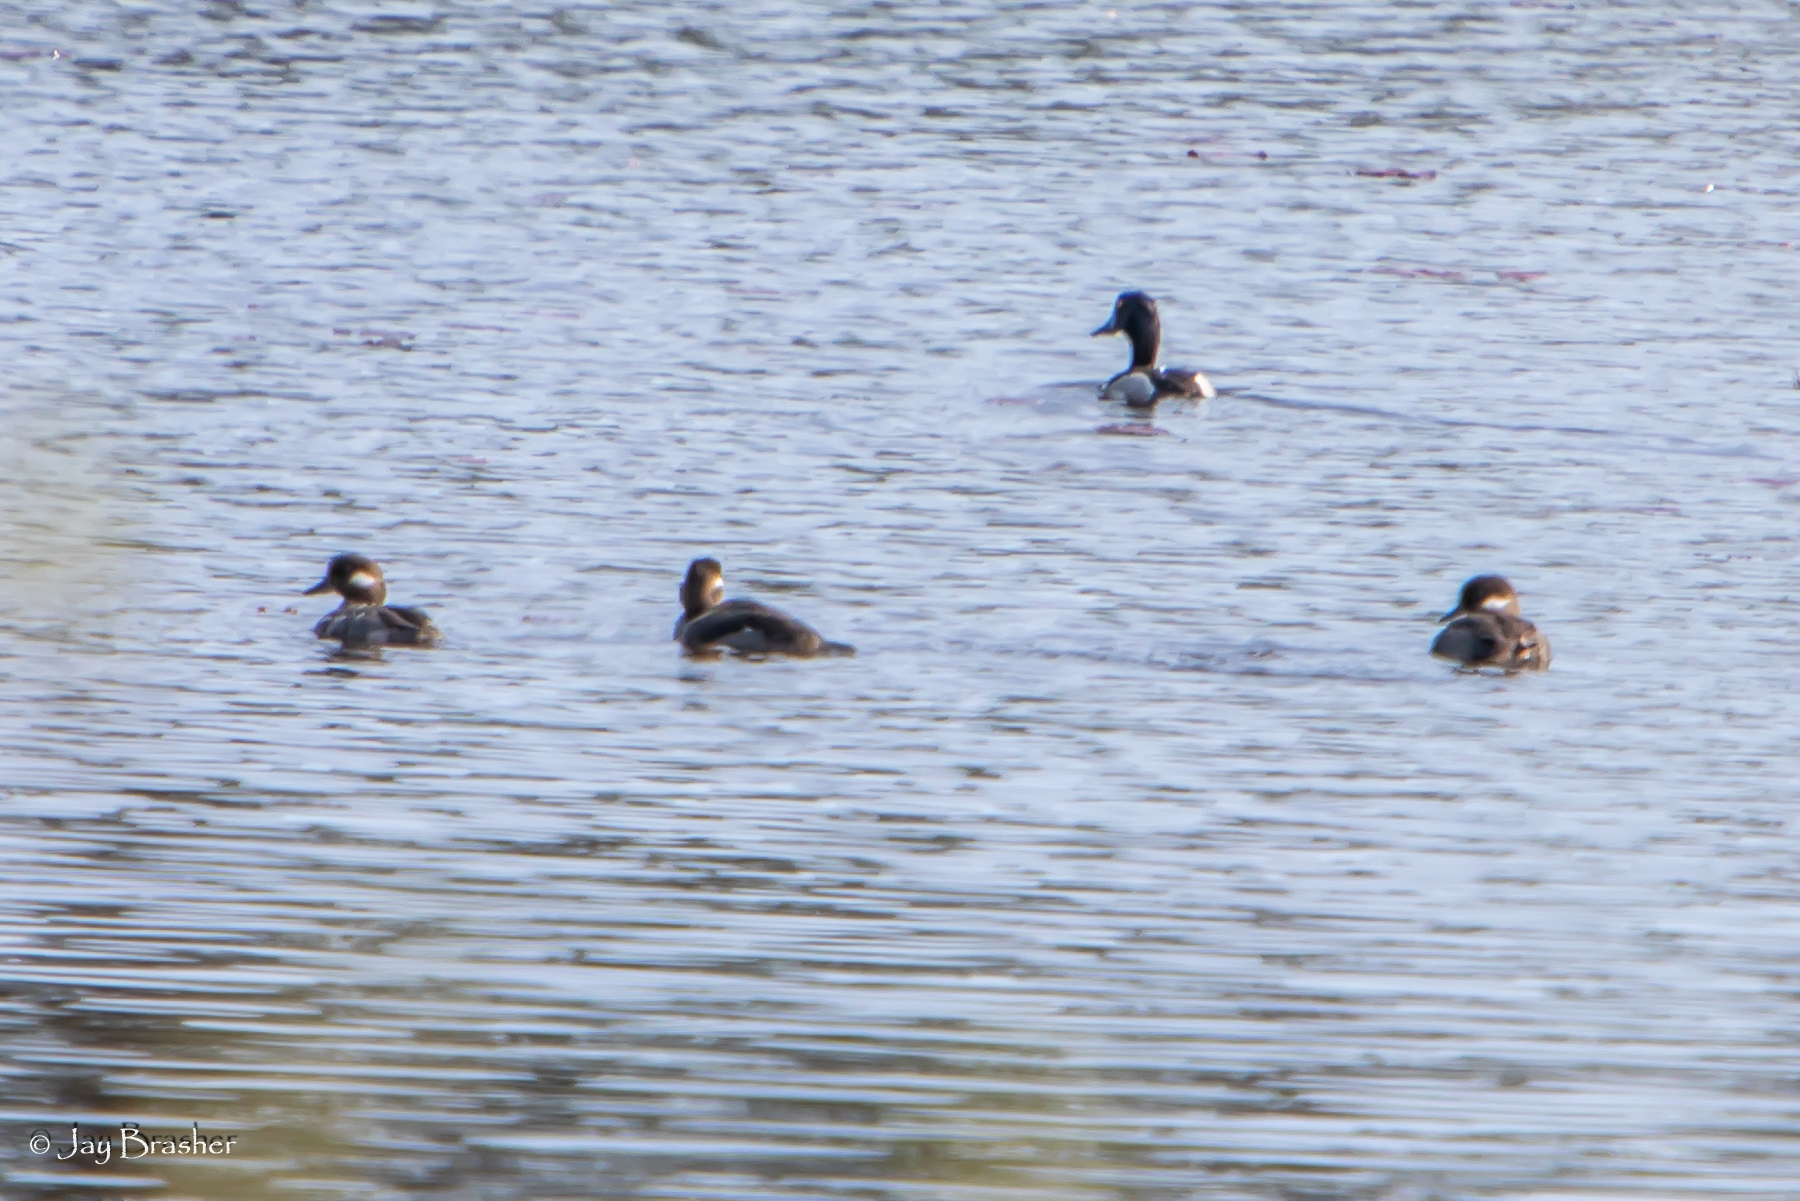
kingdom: Animalia
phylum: Chordata
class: Aves
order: Anseriformes
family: Anatidae
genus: Bucephala
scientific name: Bucephala albeola
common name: Bufflehead
